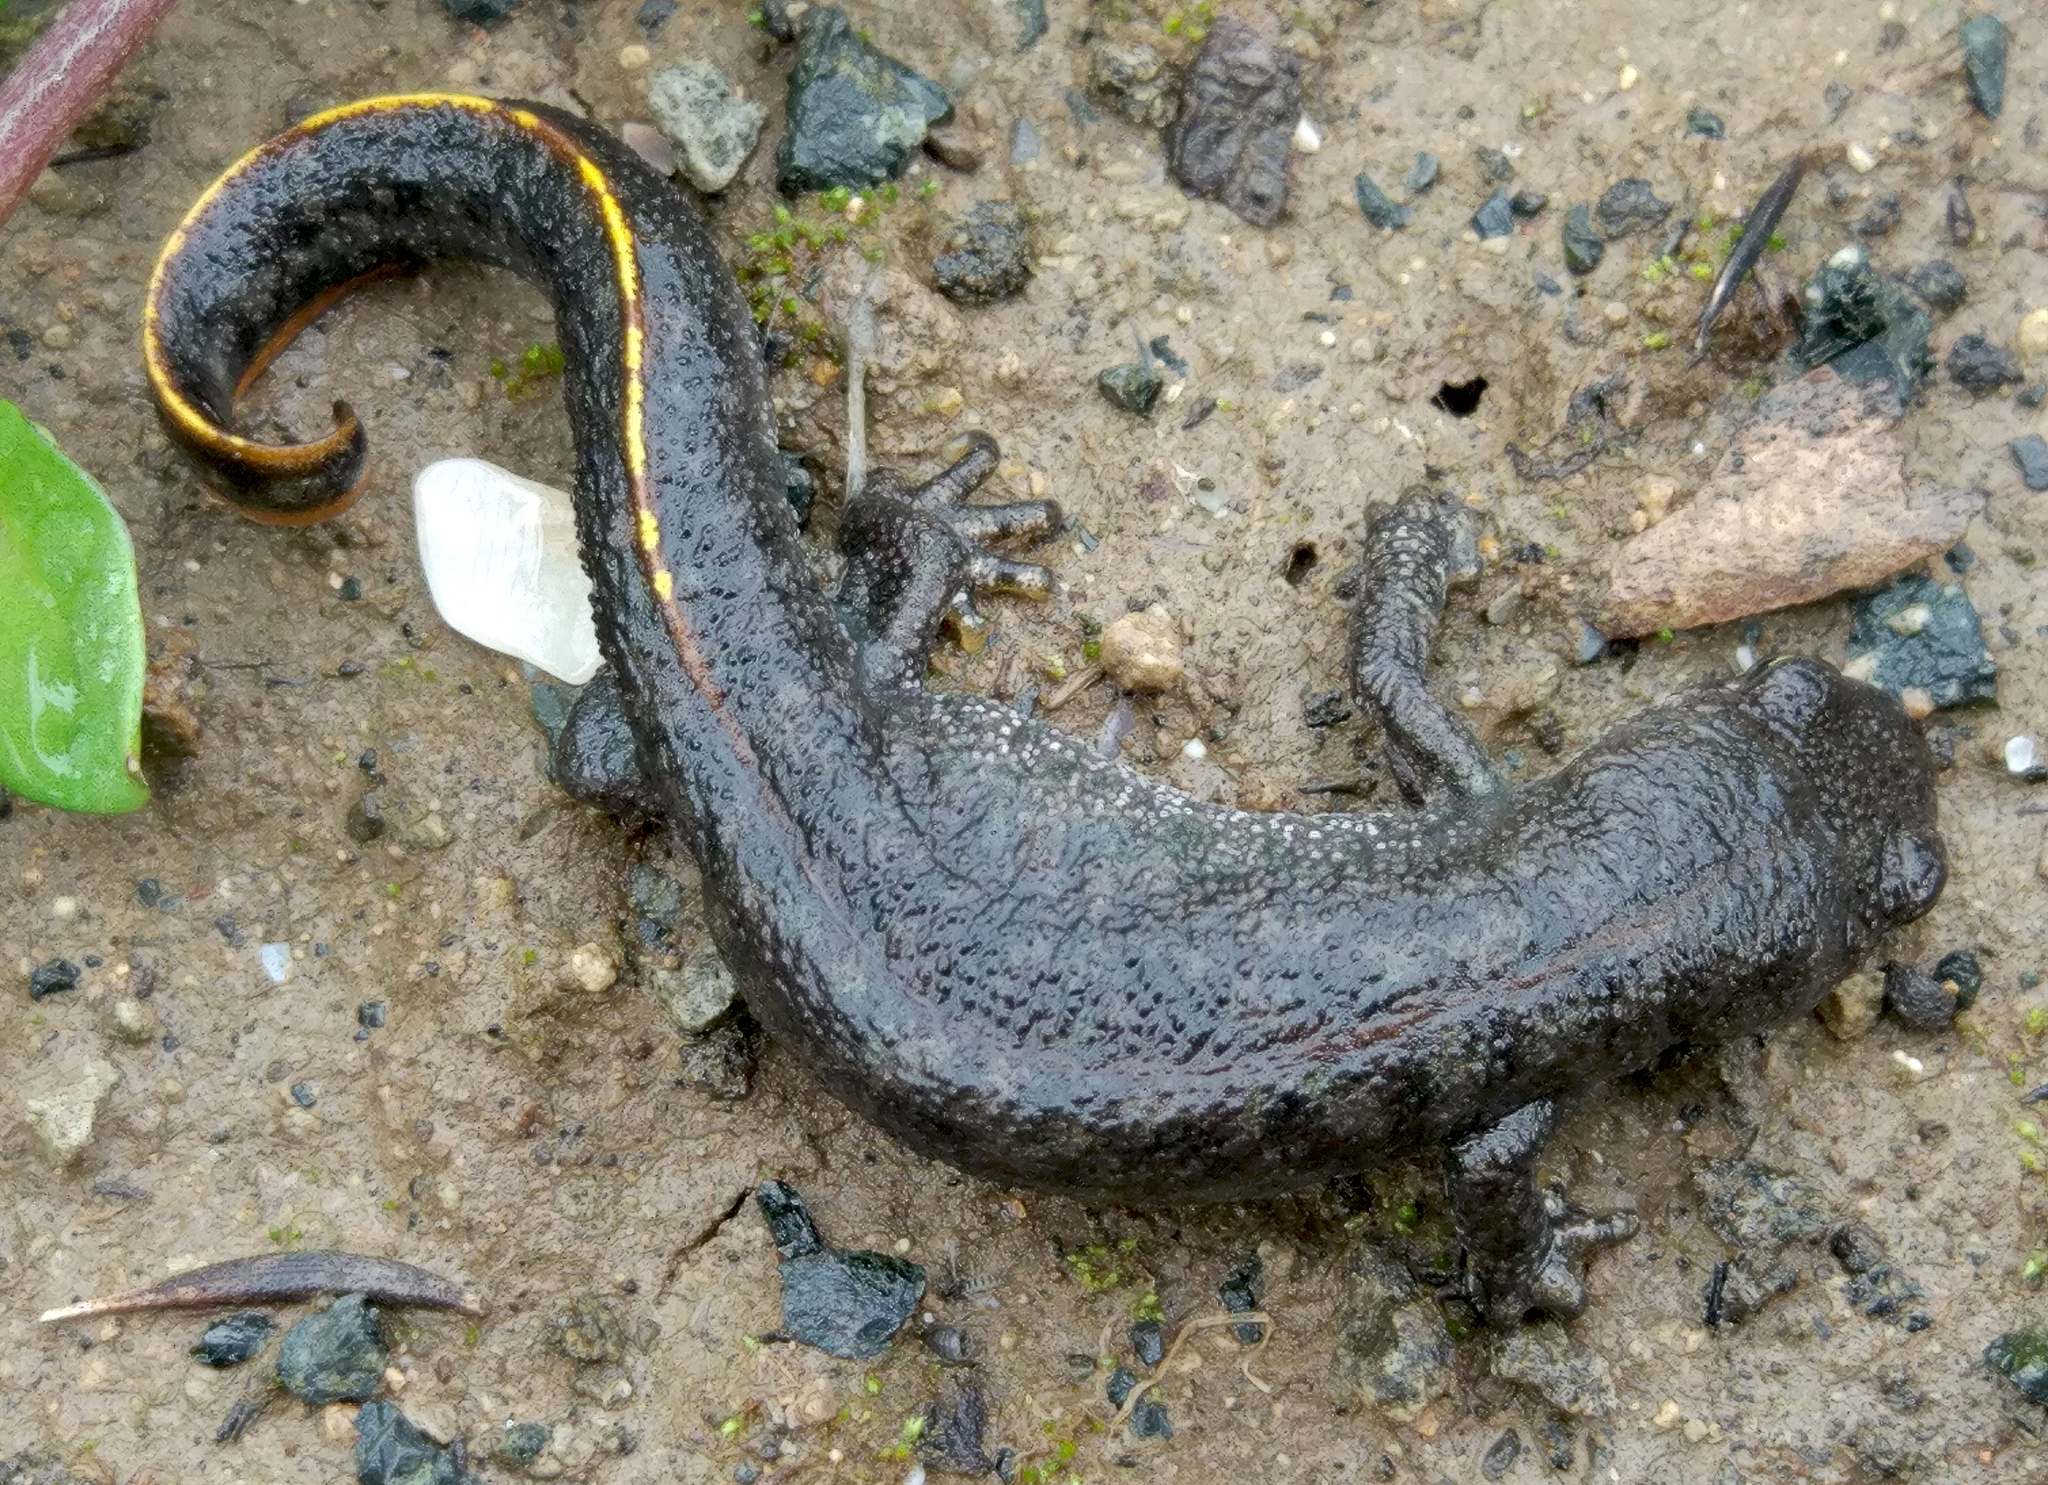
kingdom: Animalia
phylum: Chordata
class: Amphibia
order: Caudata
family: Salamandridae
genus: Triturus
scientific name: Triturus ivanbureschi
